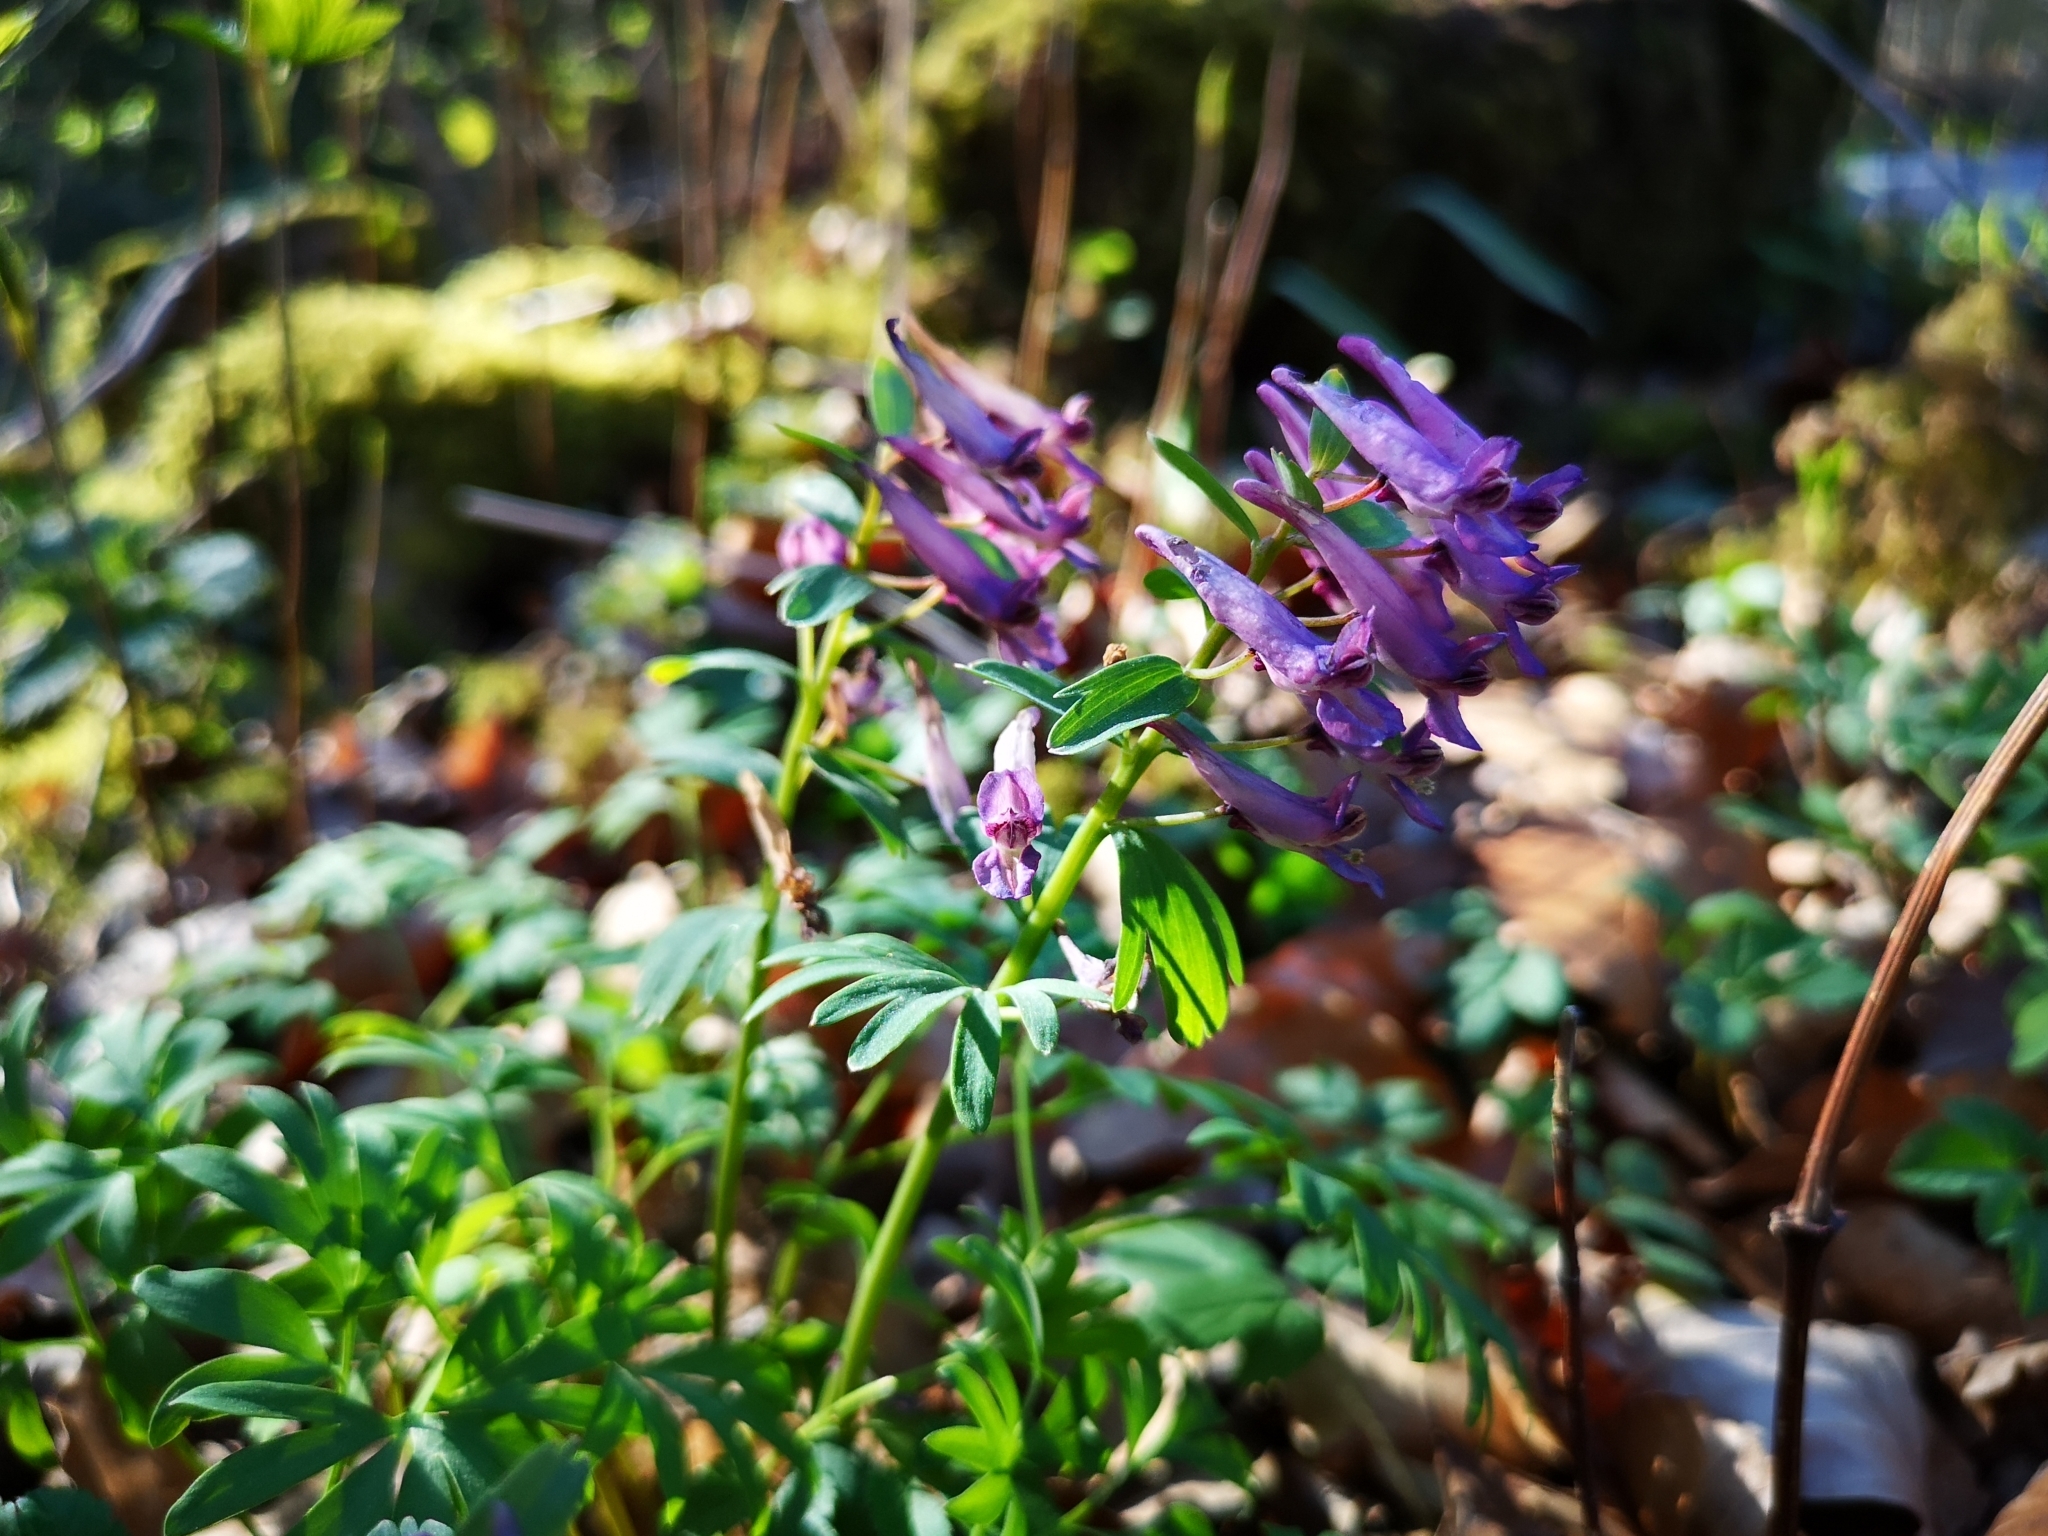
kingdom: Plantae
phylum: Tracheophyta
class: Magnoliopsida
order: Ranunculales
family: Papaveraceae
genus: Corydalis
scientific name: Corydalis solida
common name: Bird-in-a-bush
